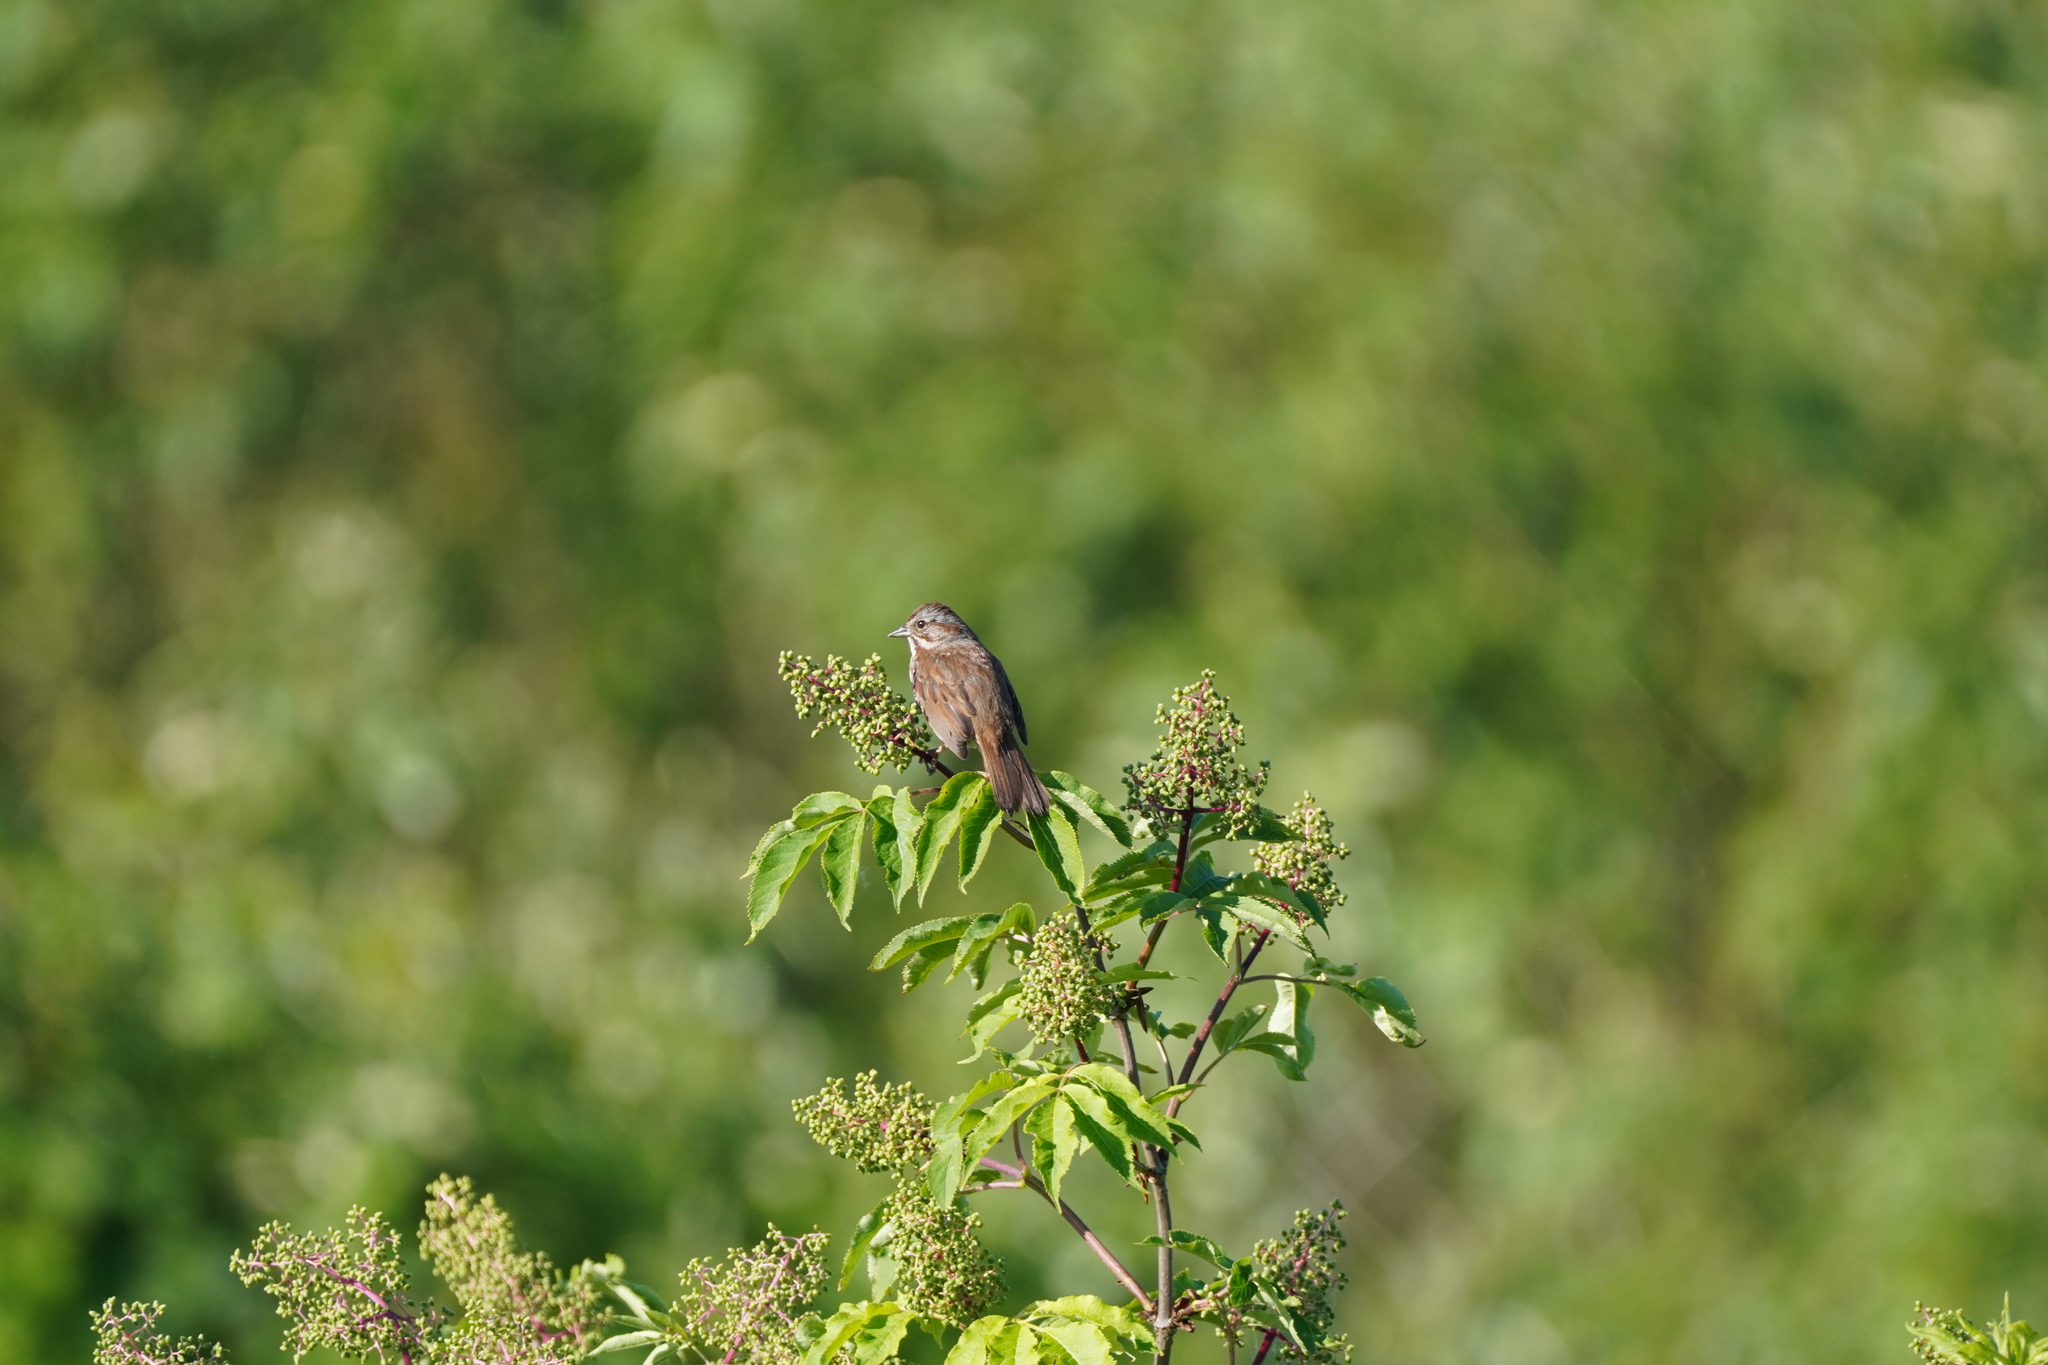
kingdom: Animalia
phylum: Chordata
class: Aves
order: Passeriformes
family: Passerellidae
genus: Melospiza
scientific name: Melospiza melodia
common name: Song sparrow
